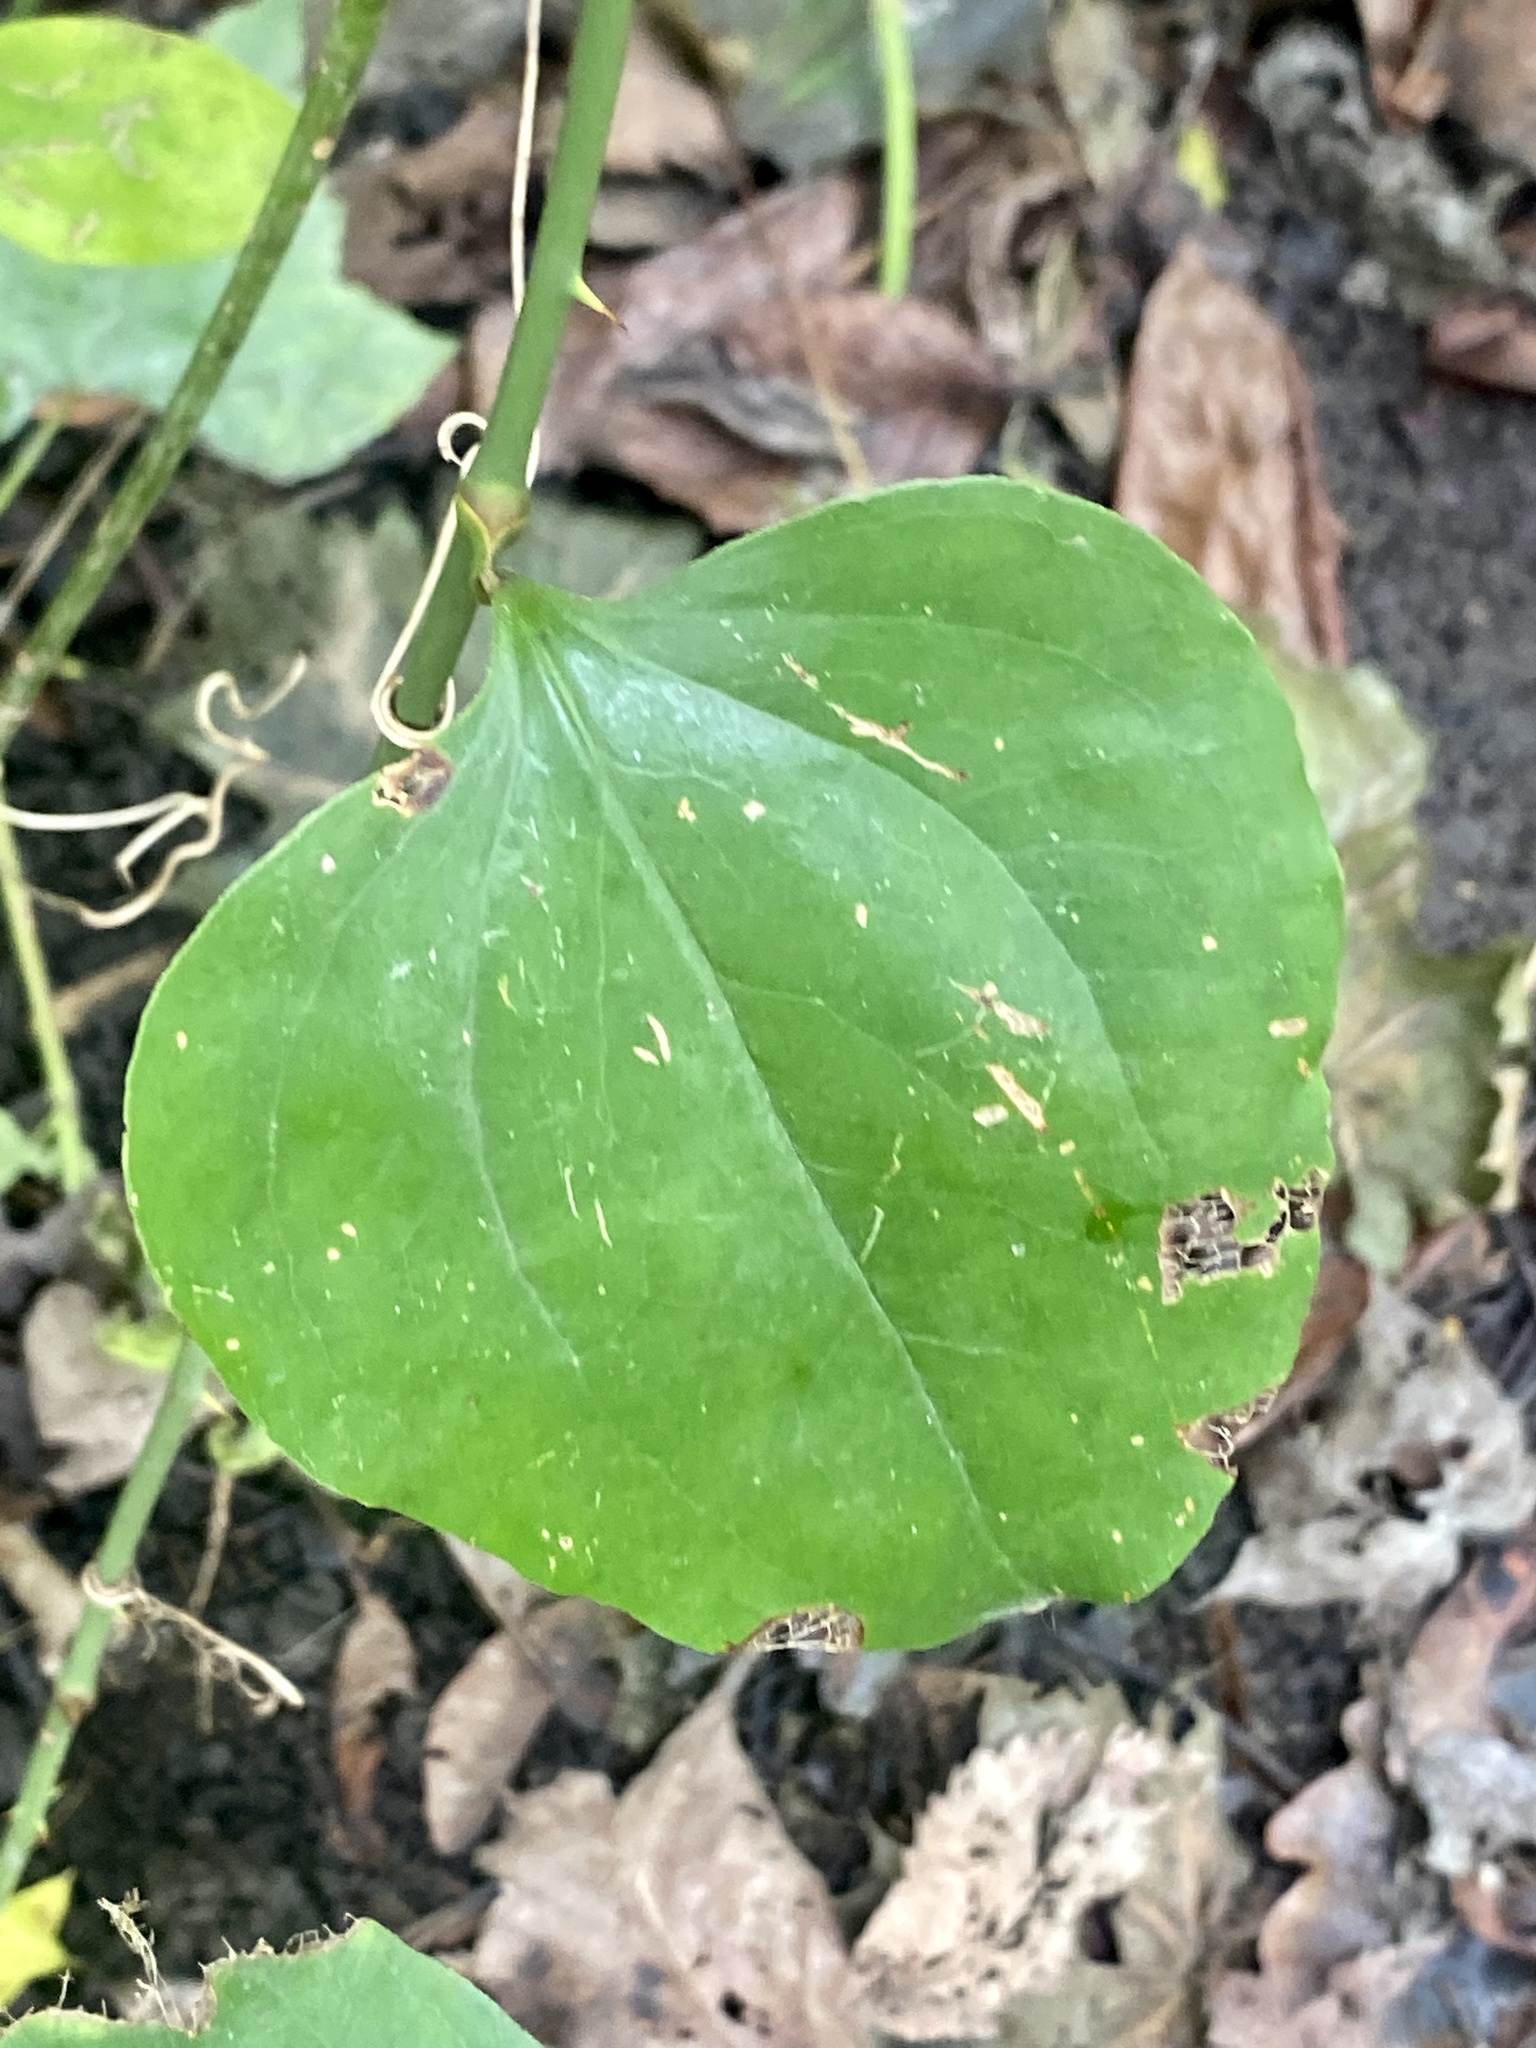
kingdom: Plantae
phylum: Tracheophyta
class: Liliopsida
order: Liliales
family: Smilacaceae
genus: Smilax
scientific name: Smilax rotundifolia
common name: Bullbriar
